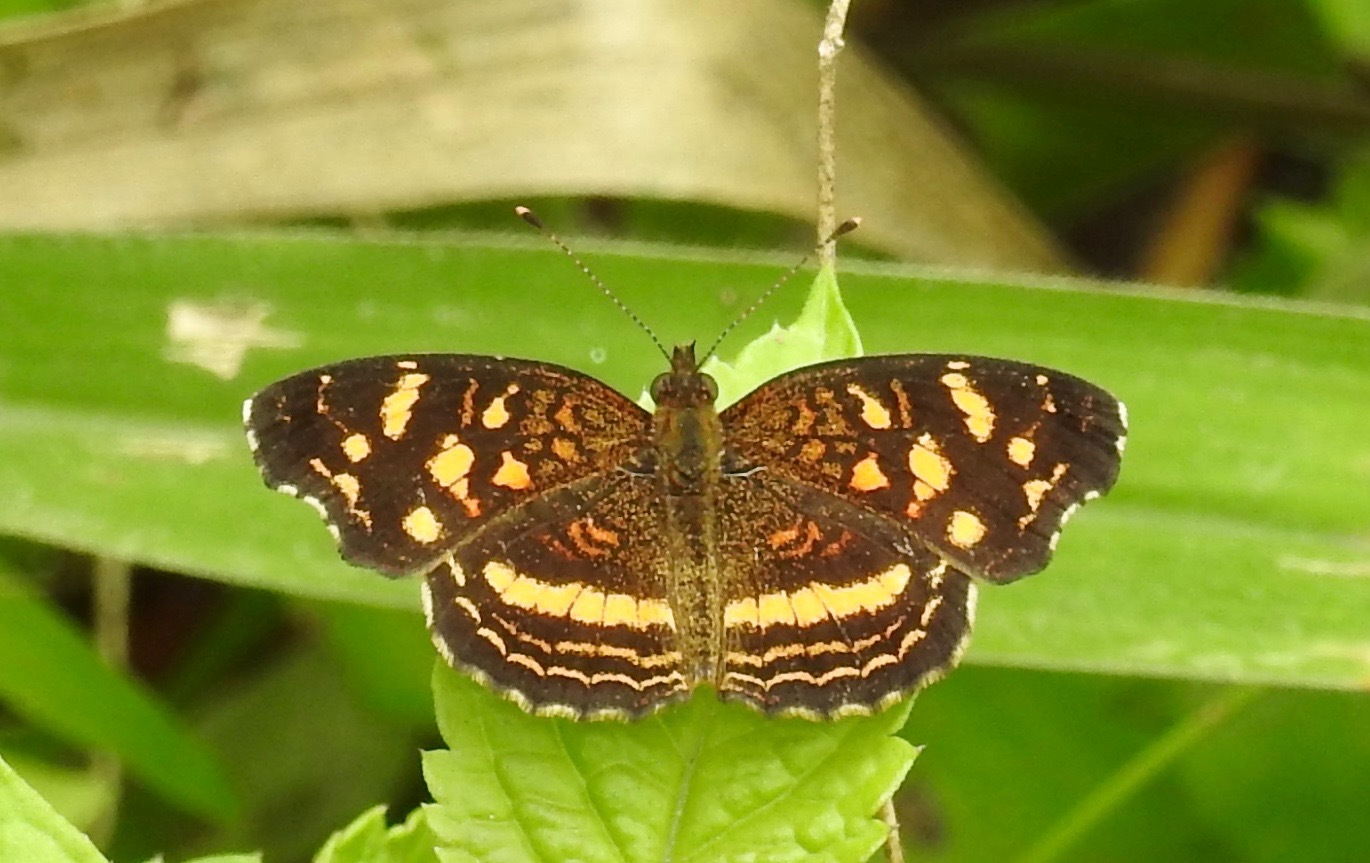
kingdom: Animalia
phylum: Arthropoda
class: Insecta
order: Lepidoptera
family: Nymphalidae
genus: Anthanassa
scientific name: Anthanassa drusilla
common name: Orange-patched crescent
